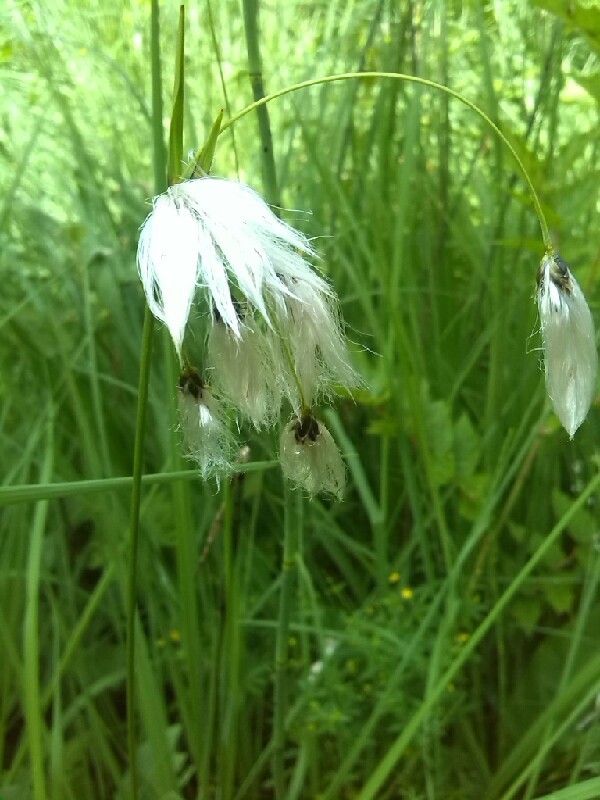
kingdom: Plantae
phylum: Tracheophyta
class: Liliopsida
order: Poales
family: Cyperaceae
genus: Eriophorum
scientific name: Eriophorum latifolium
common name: Broad-leaved cottongrass
